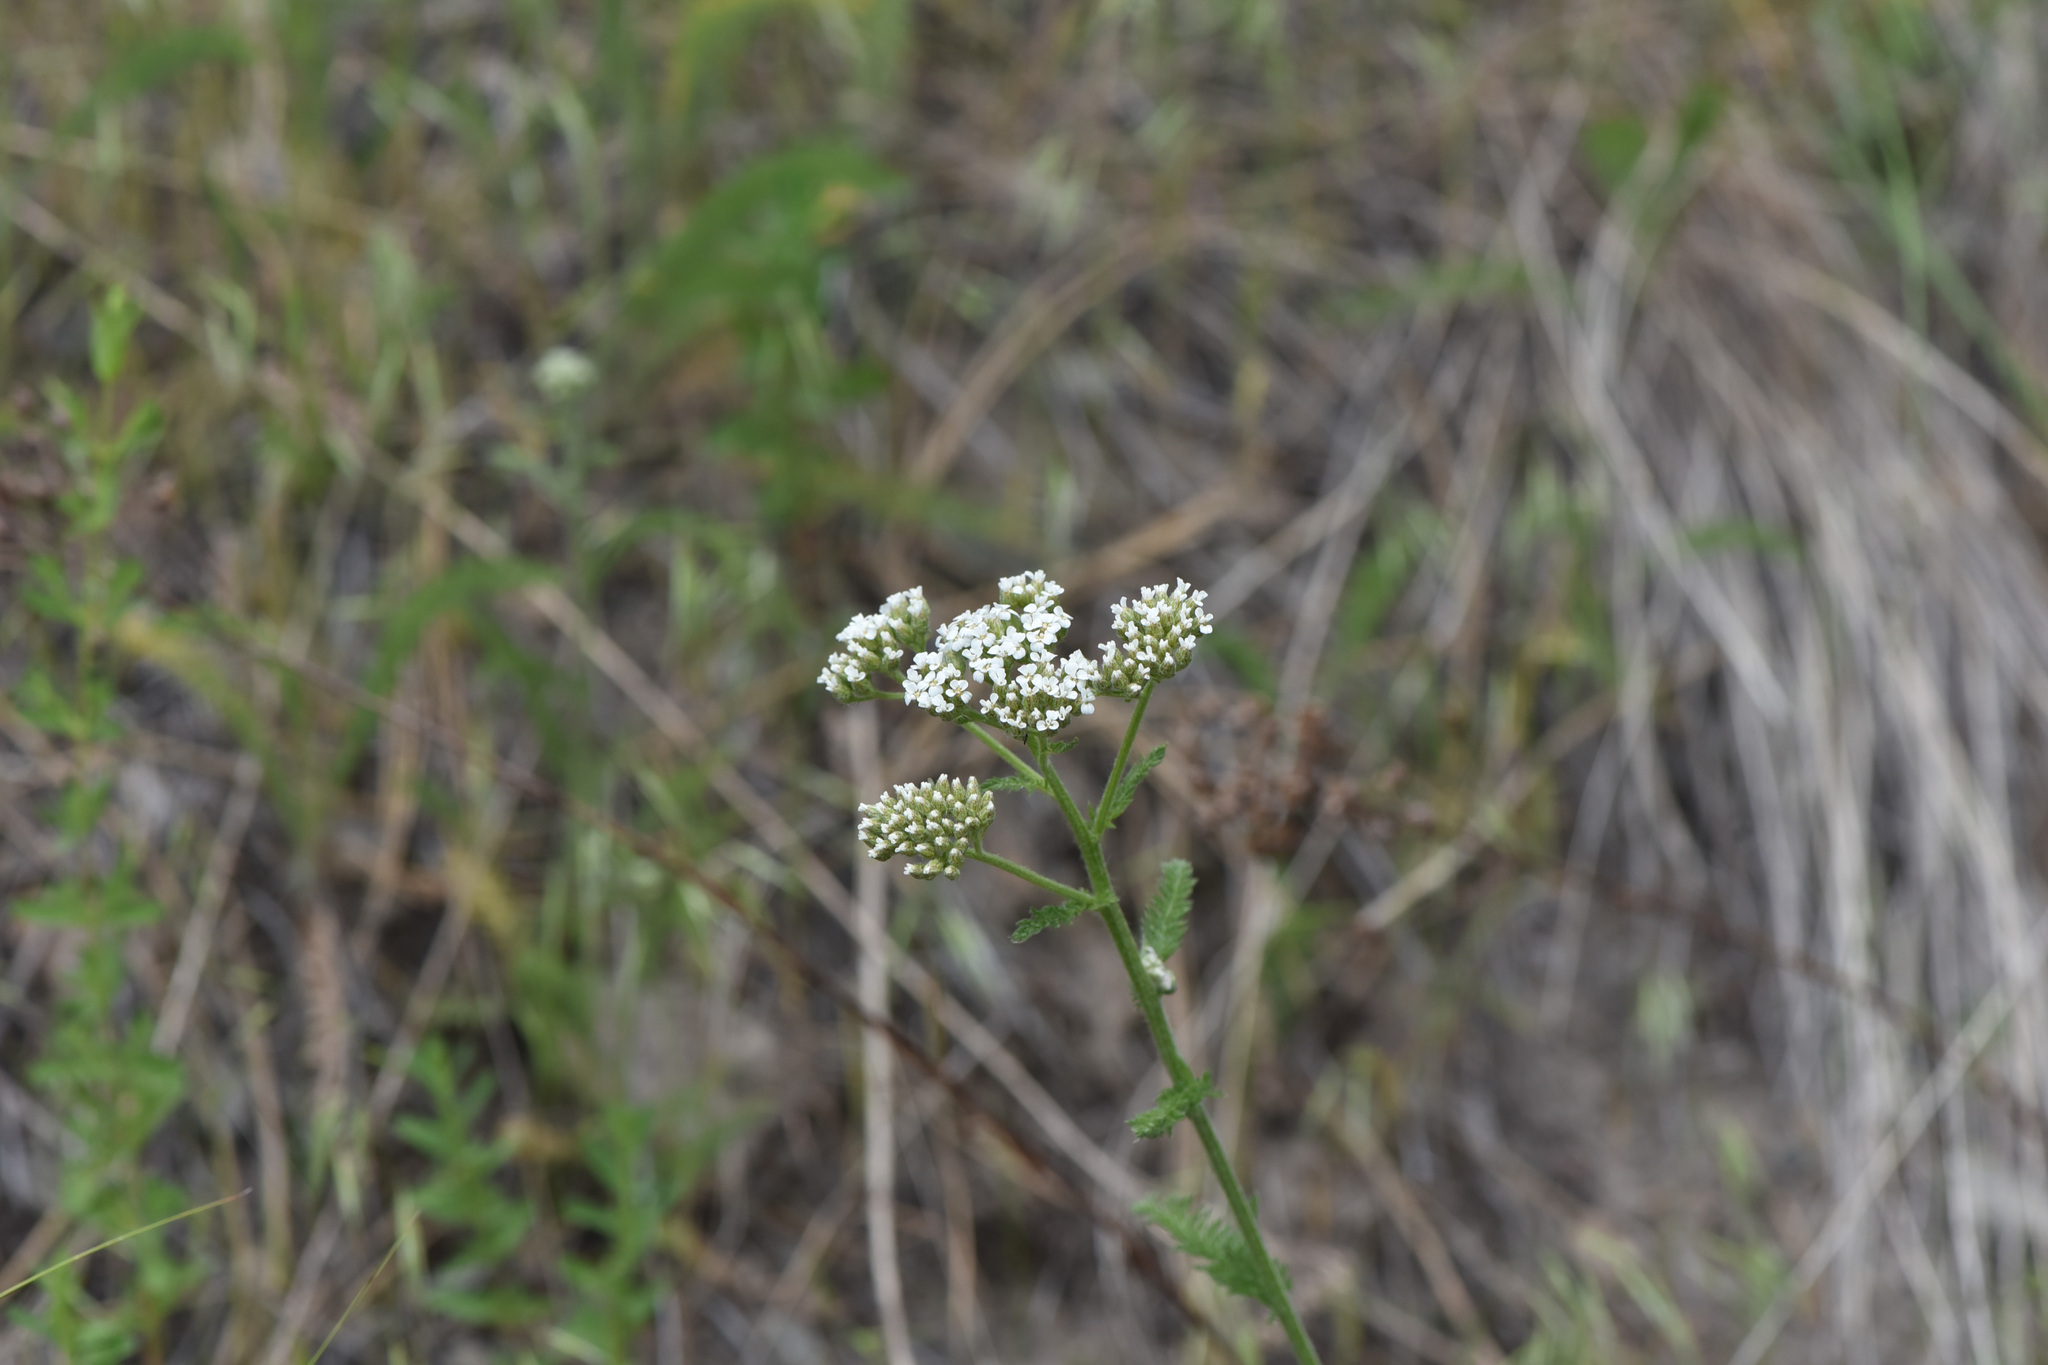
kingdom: Plantae
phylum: Tracheophyta
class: Magnoliopsida
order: Asterales
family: Asteraceae
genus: Achillea
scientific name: Achillea millefolium
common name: Yarrow
